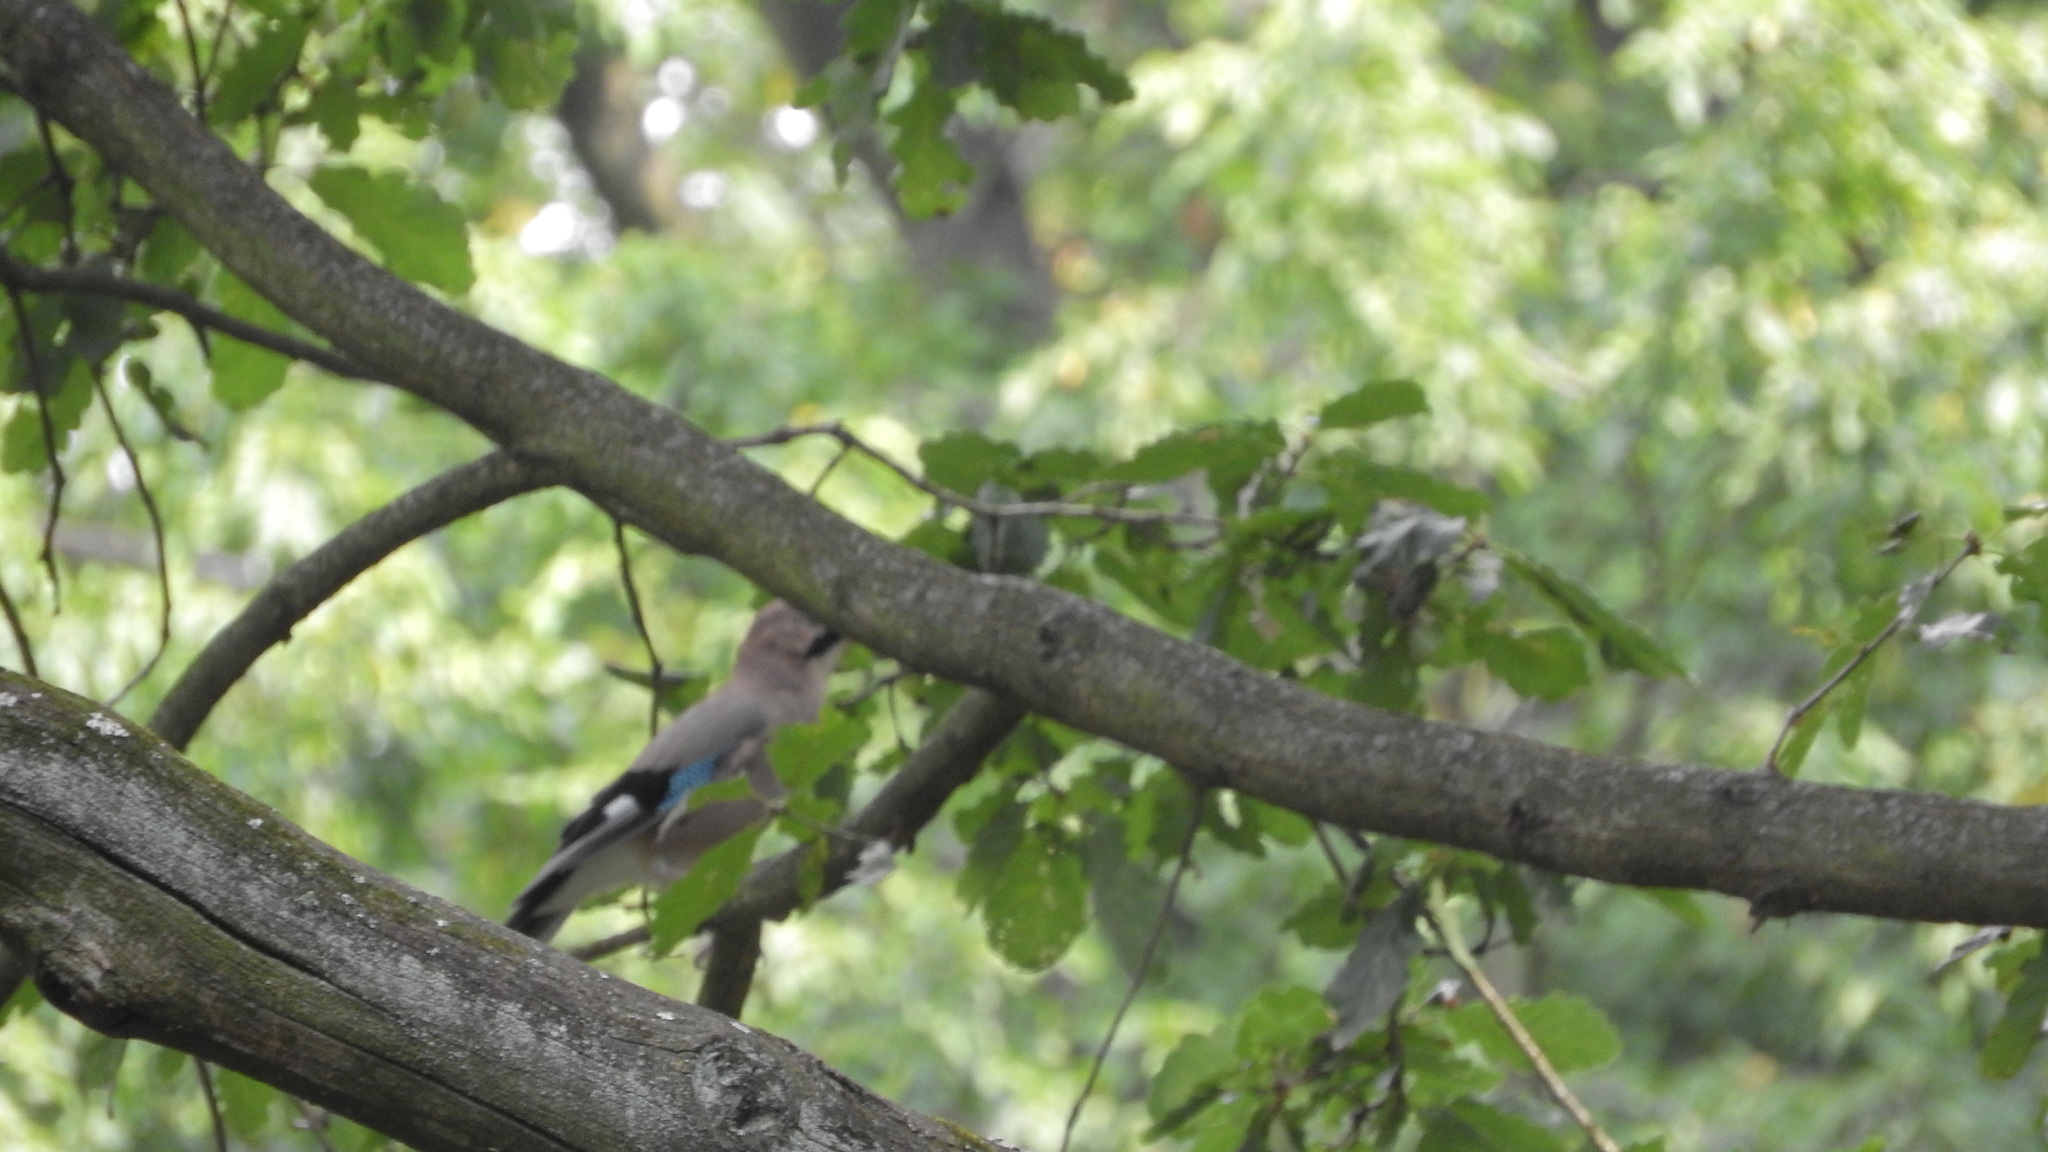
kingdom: Animalia
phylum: Chordata
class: Aves
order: Passeriformes
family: Corvidae
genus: Garrulus
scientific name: Garrulus glandarius
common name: Eurasian jay
